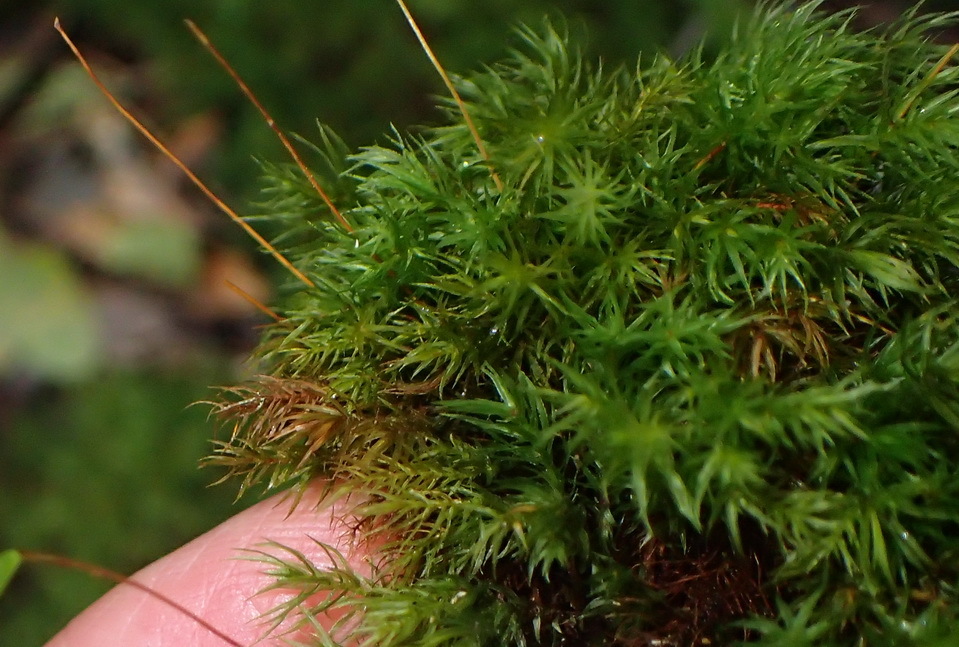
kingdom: Plantae
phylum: Bryophyta
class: Bryopsida
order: Rhizogoniales
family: Calomniaceae
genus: Pyrrhobryum
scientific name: Pyrrhobryum spiniforme
